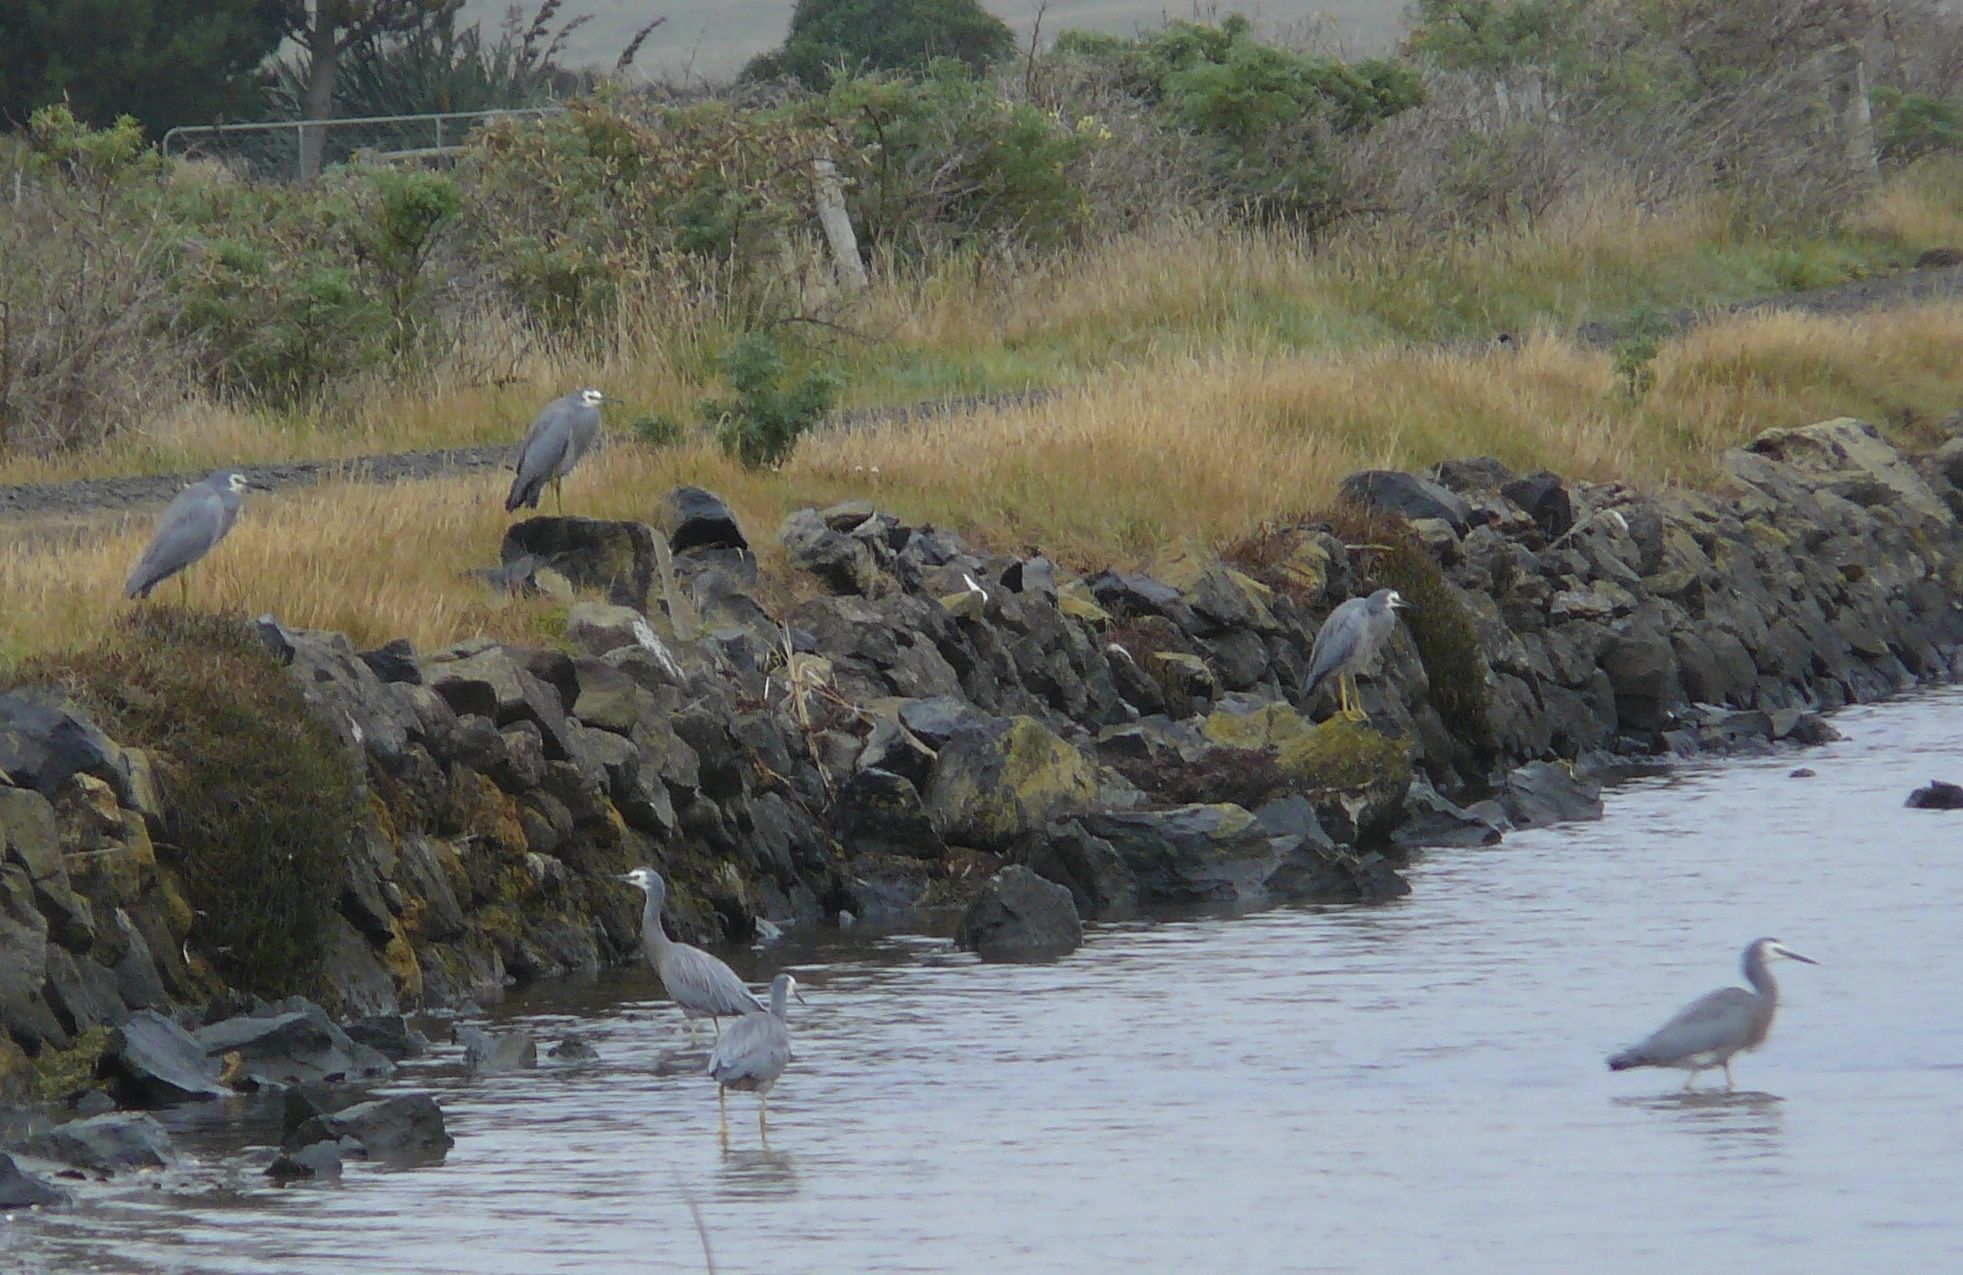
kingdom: Animalia
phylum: Chordata
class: Aves
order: Pelecaniformes
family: Ardeidae
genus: Egretta
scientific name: Egretta novaehollandiae
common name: White-faced heron
